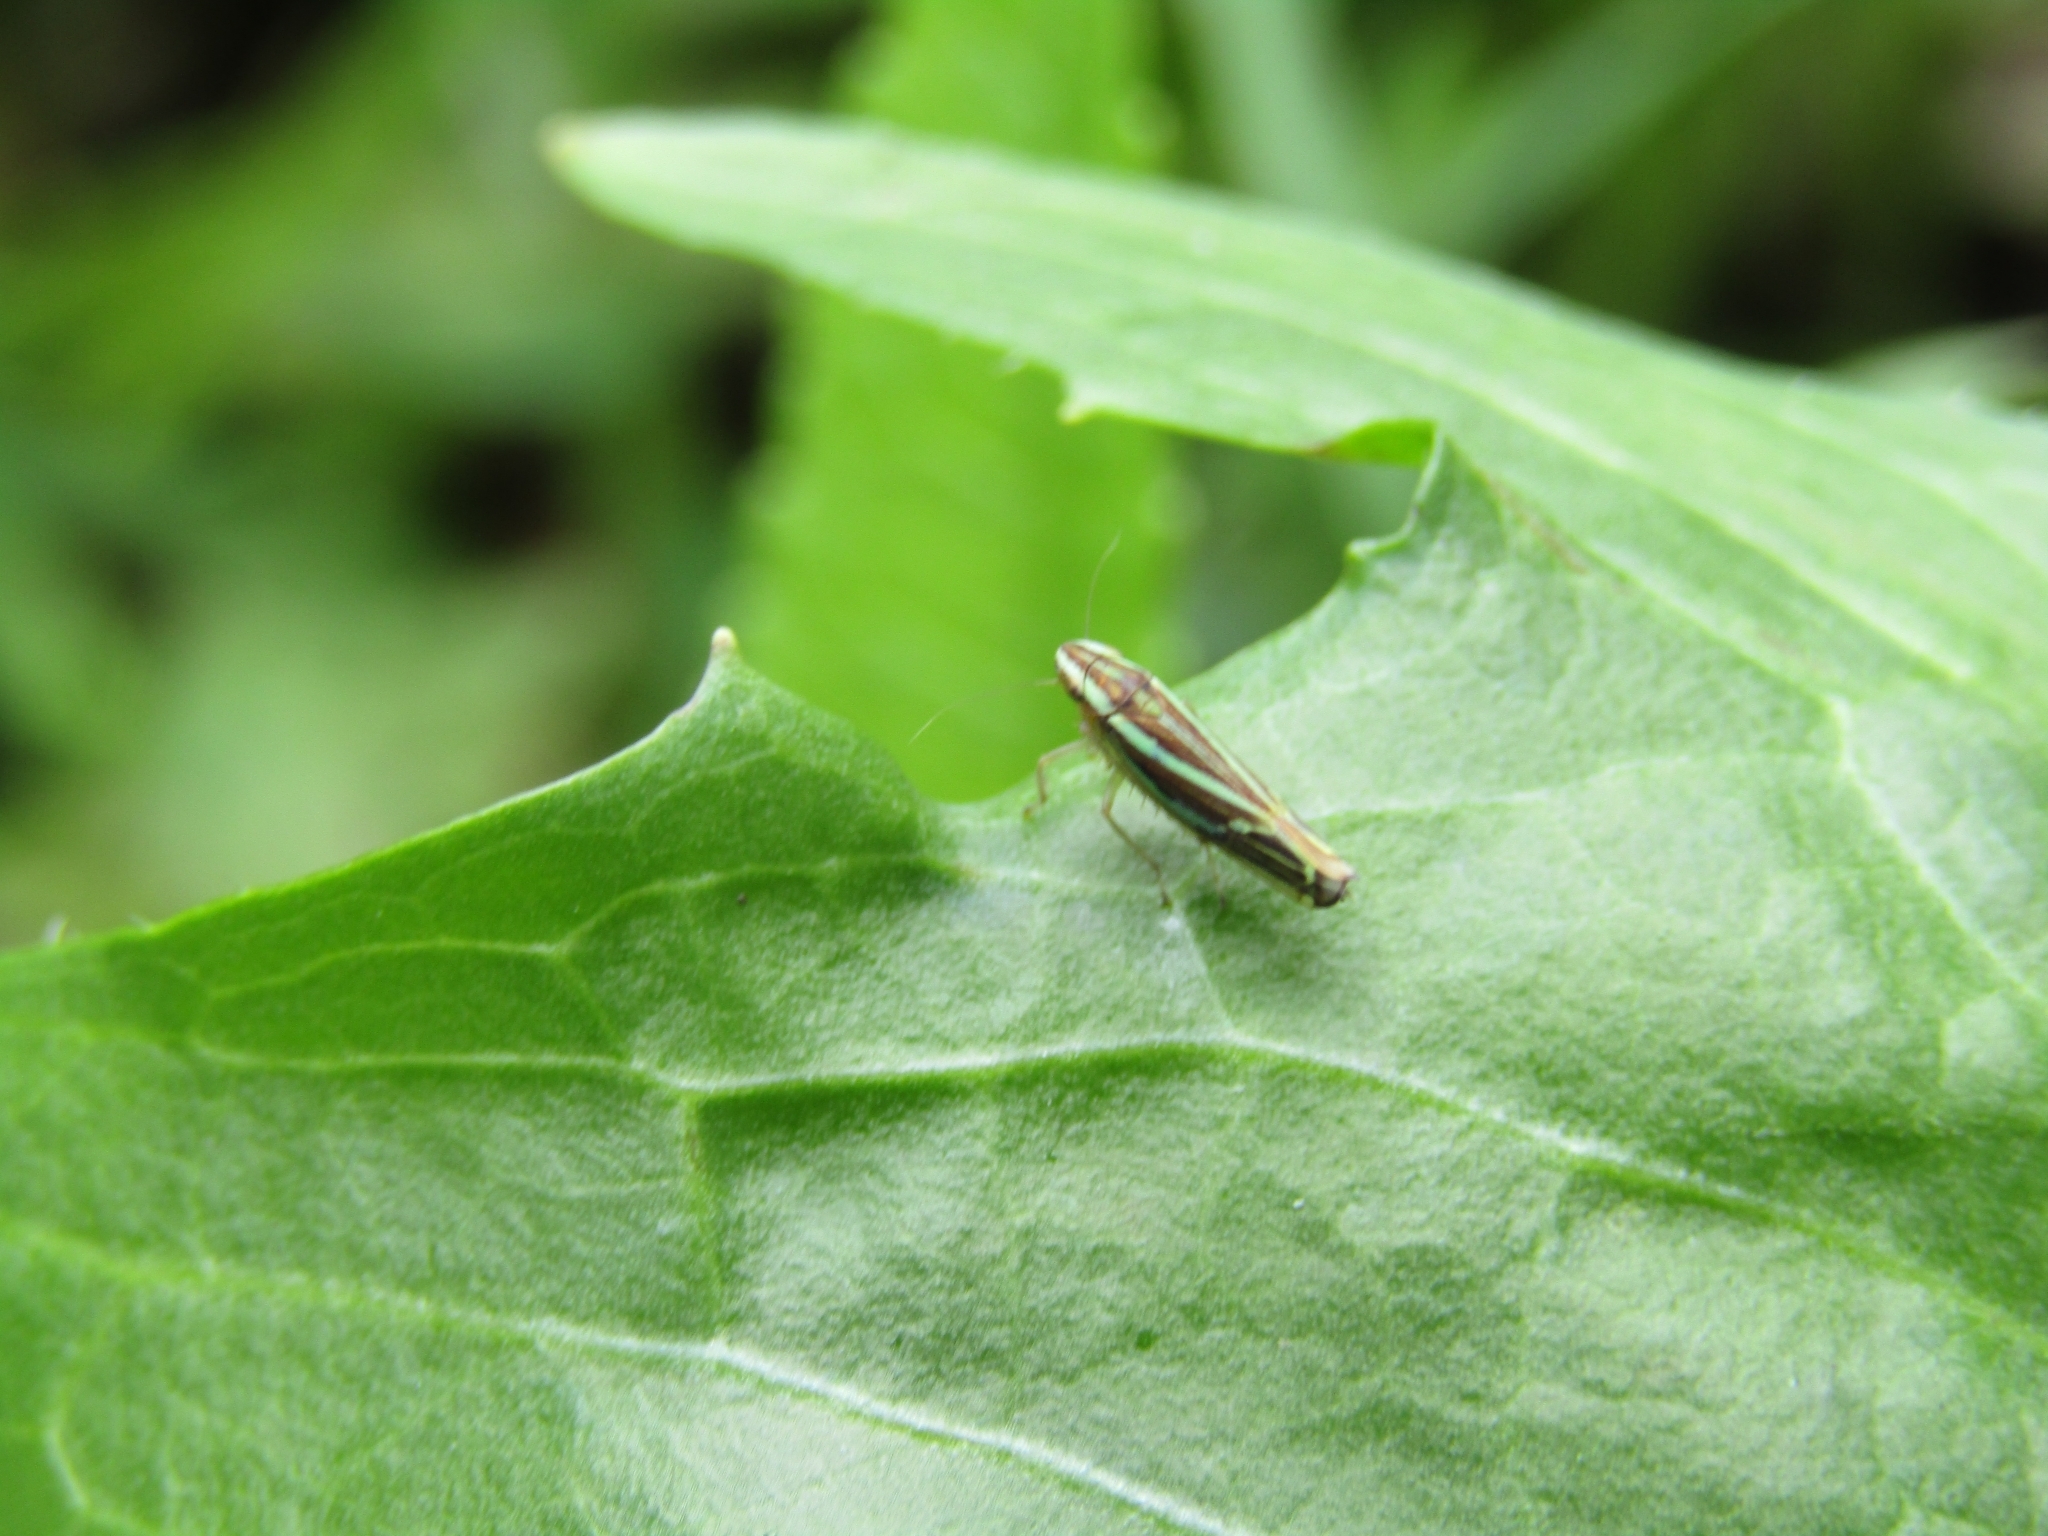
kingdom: Animalia
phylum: Arthropoda
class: Insecta
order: Hemiptera
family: Cicadellidae
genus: Sibovia
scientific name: Sibovia sagata
